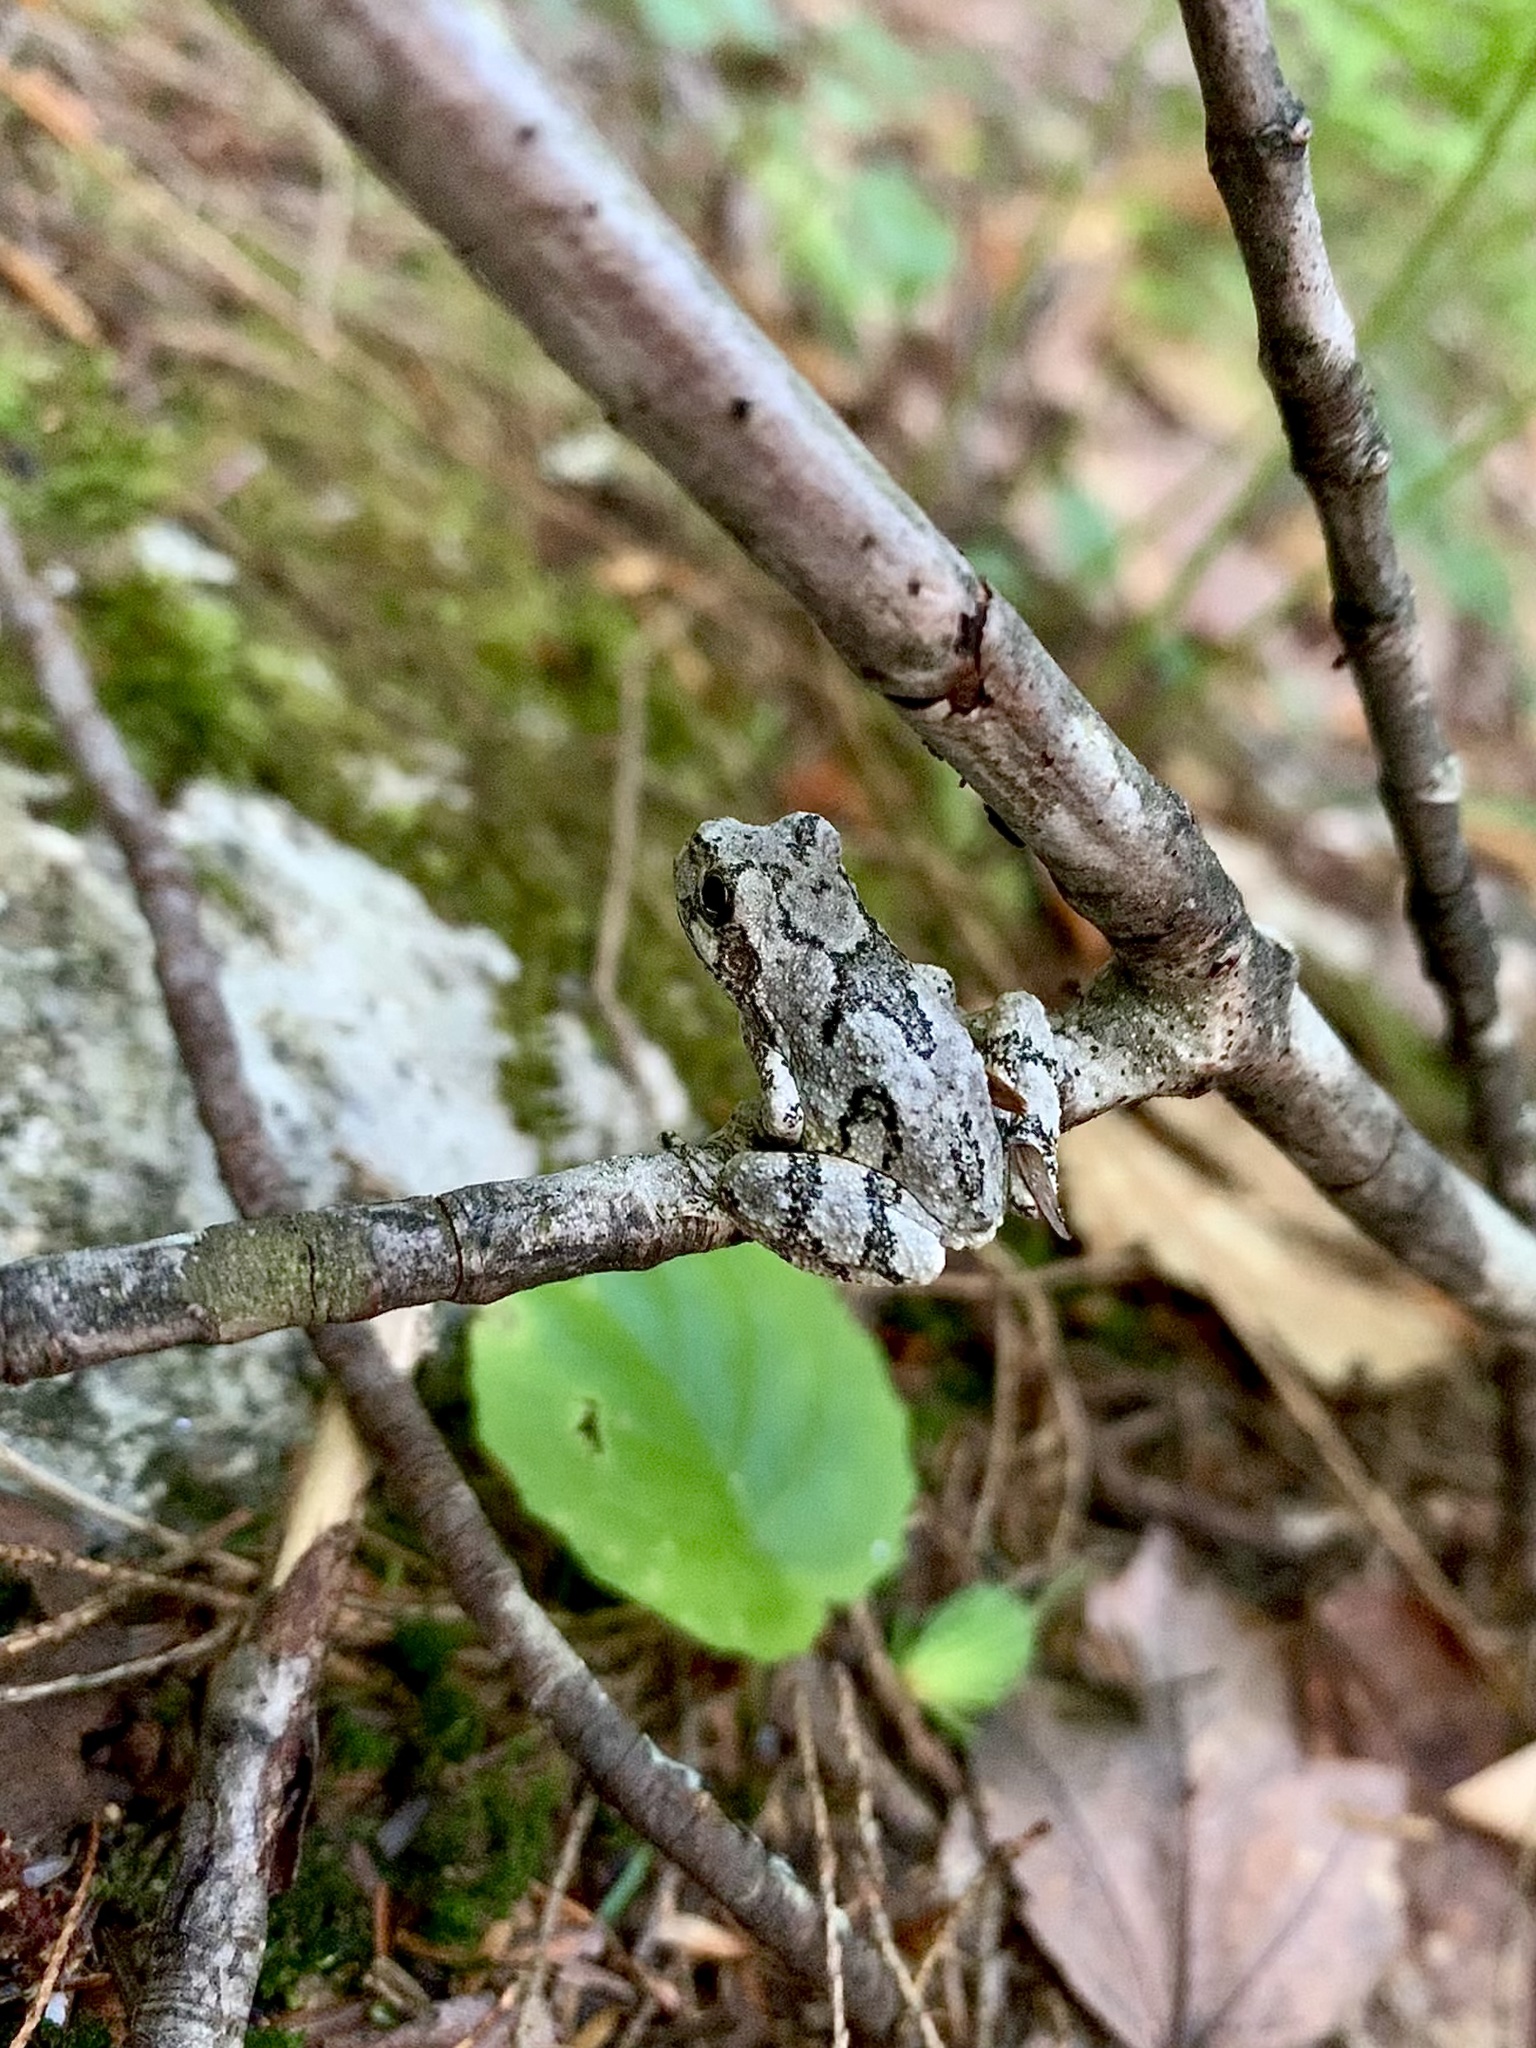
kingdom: Animalia
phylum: Chordata
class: Amphibia
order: Anura
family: Hylidae
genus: Dryophytes
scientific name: Dryophytes versicolor
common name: Gray treefrog
